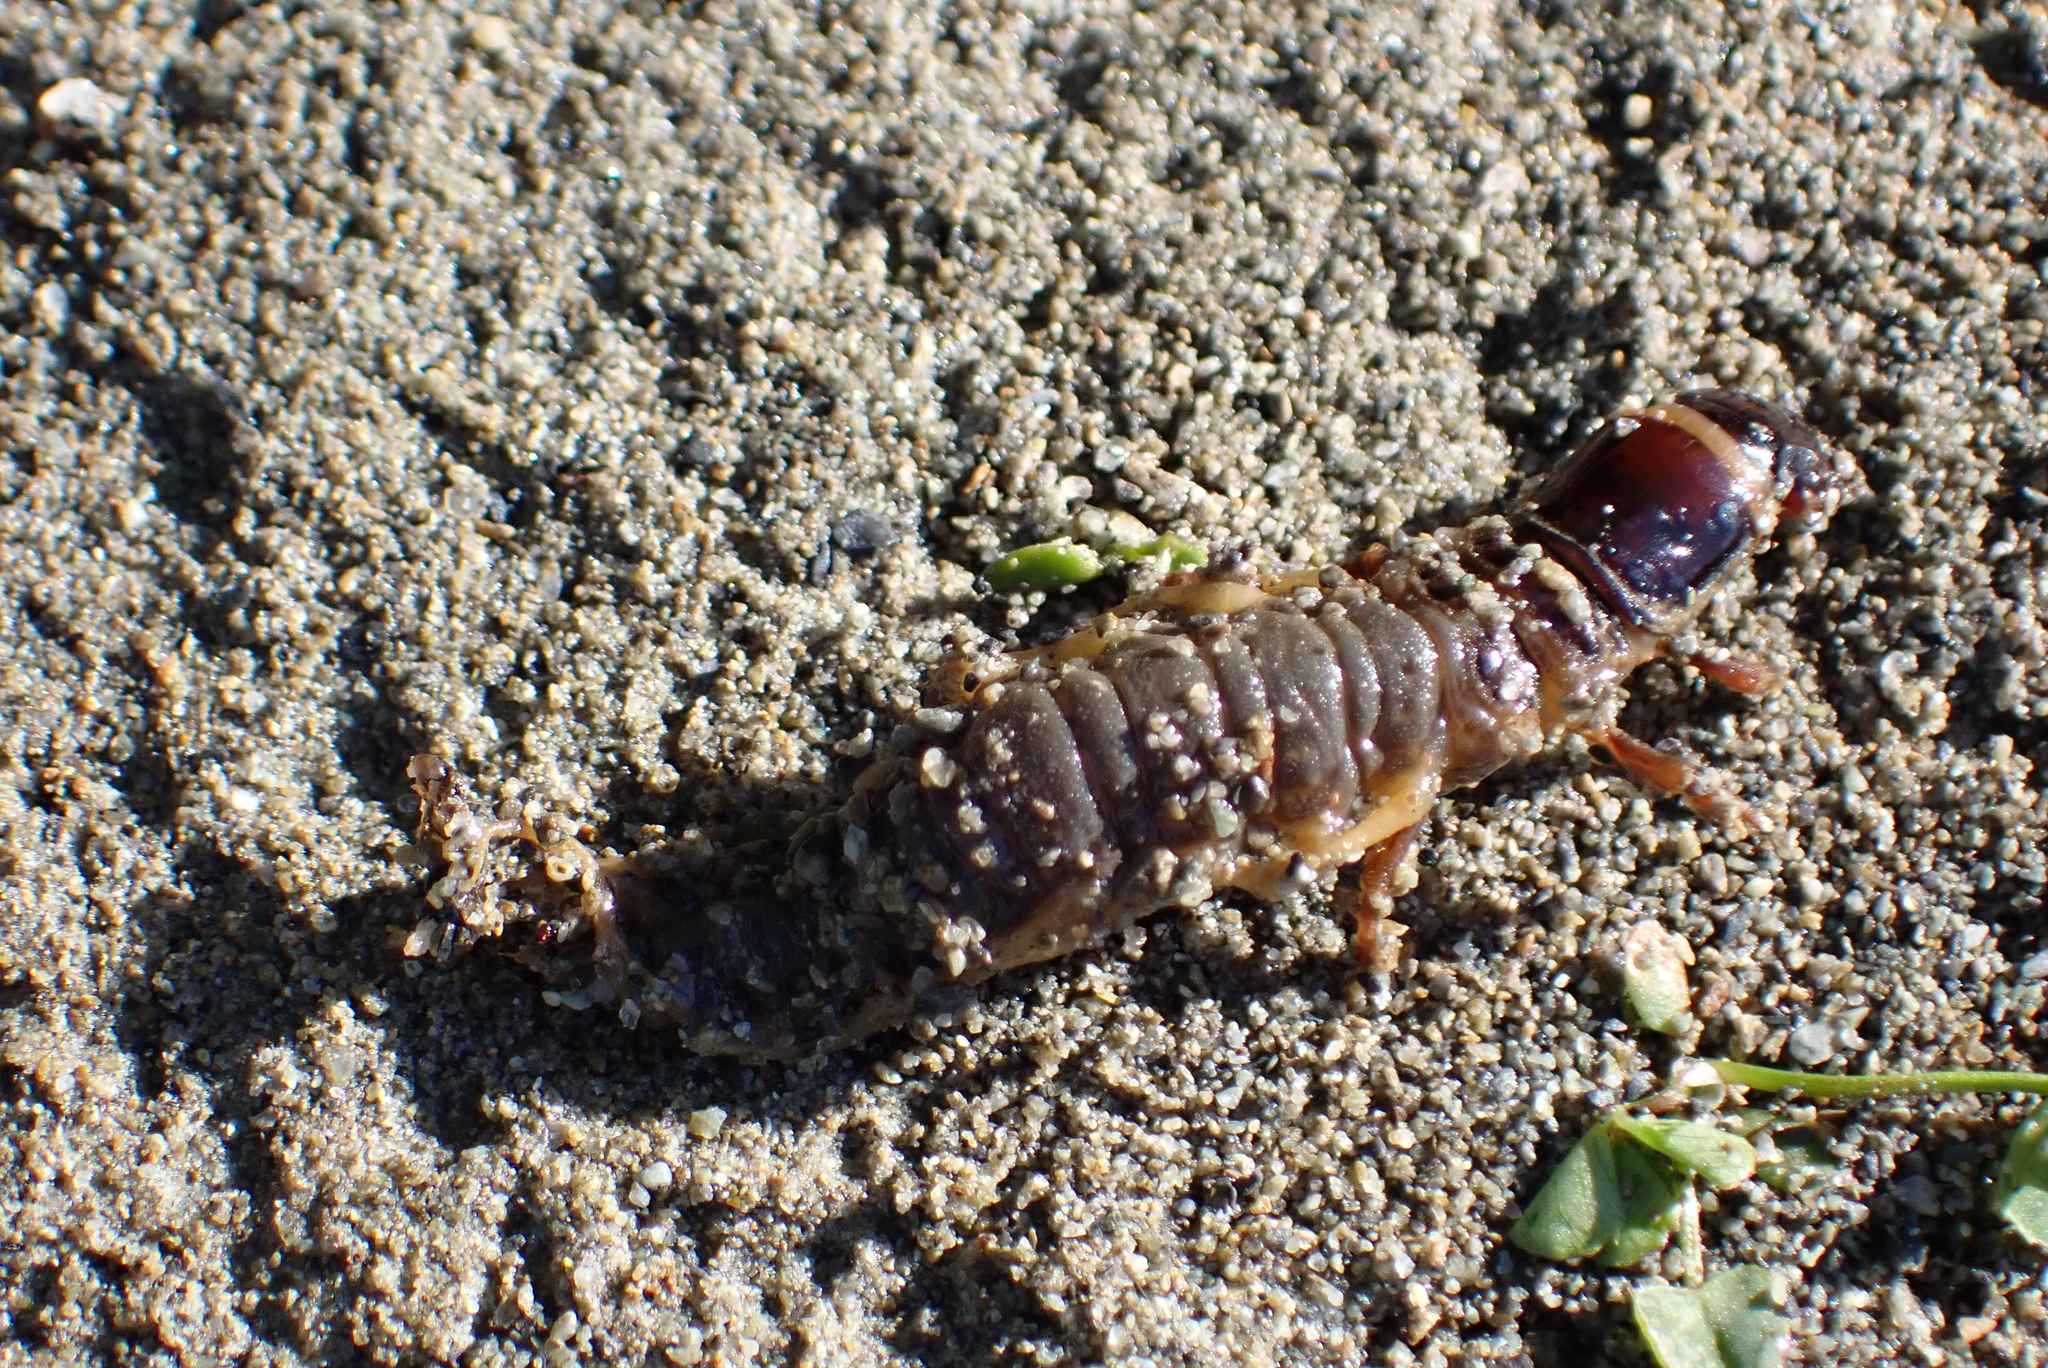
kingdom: Animalia
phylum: Arthropoda
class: Insecta
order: Megaloptera
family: Corydalidae
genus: Archichauliodes
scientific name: Archichauliodes diversus
